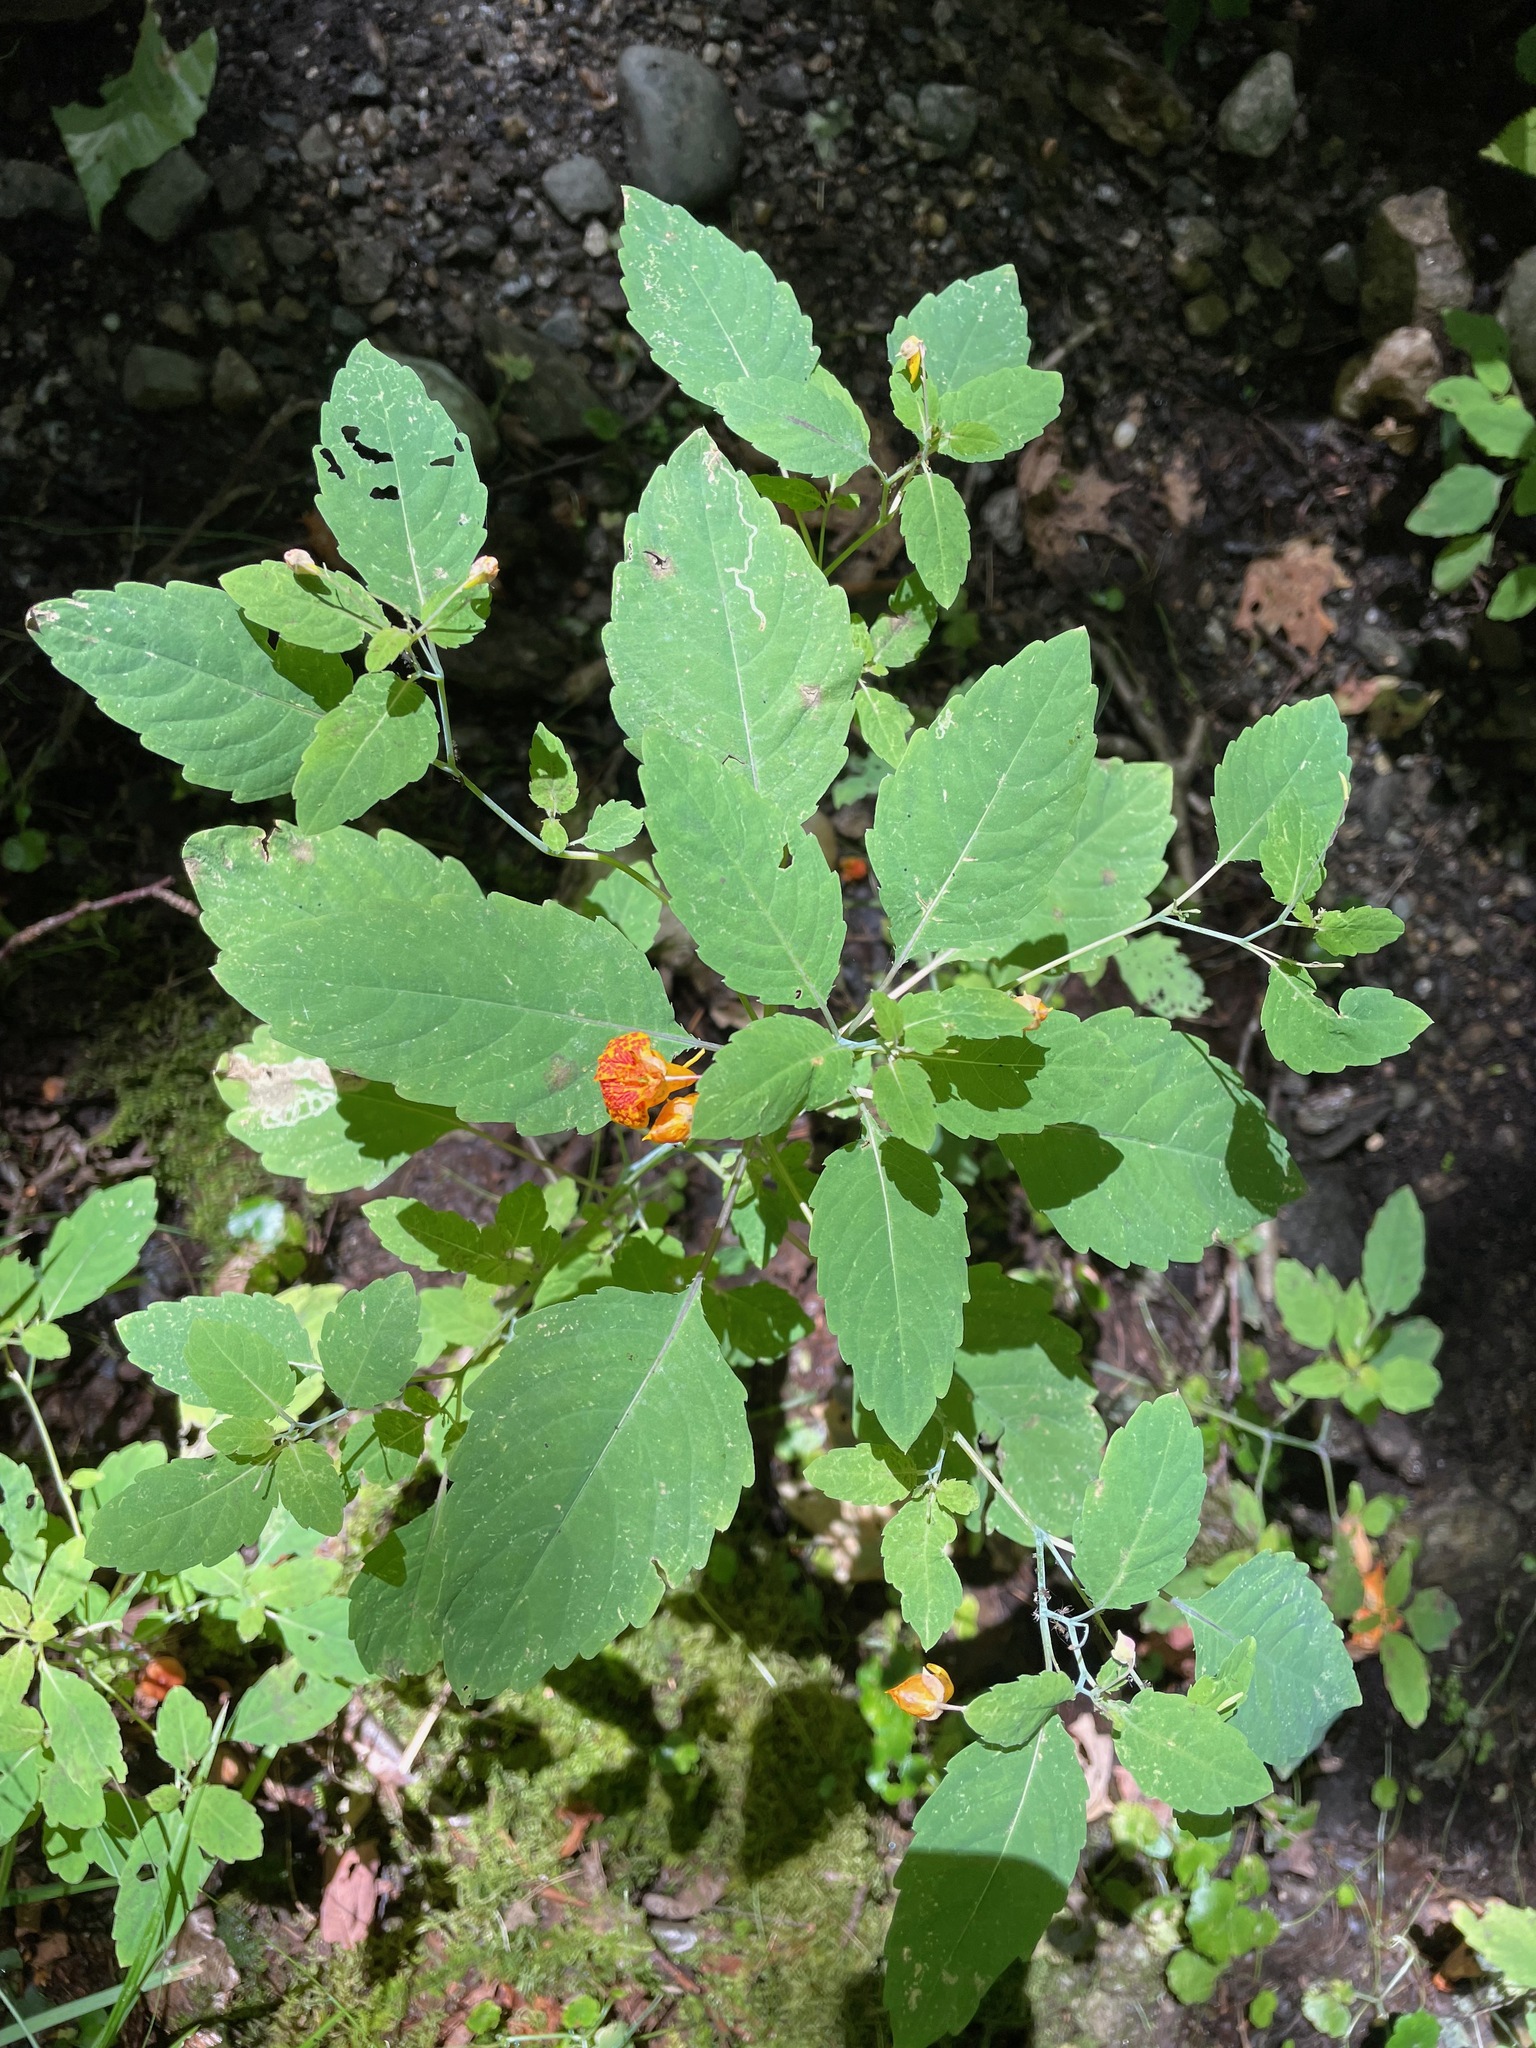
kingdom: Plantae
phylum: Tracheophyta
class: Magnoliopsida
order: Ericales
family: Balsaminaceae
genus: Impatiens
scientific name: Impatiens capensis
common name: Orange balsam
